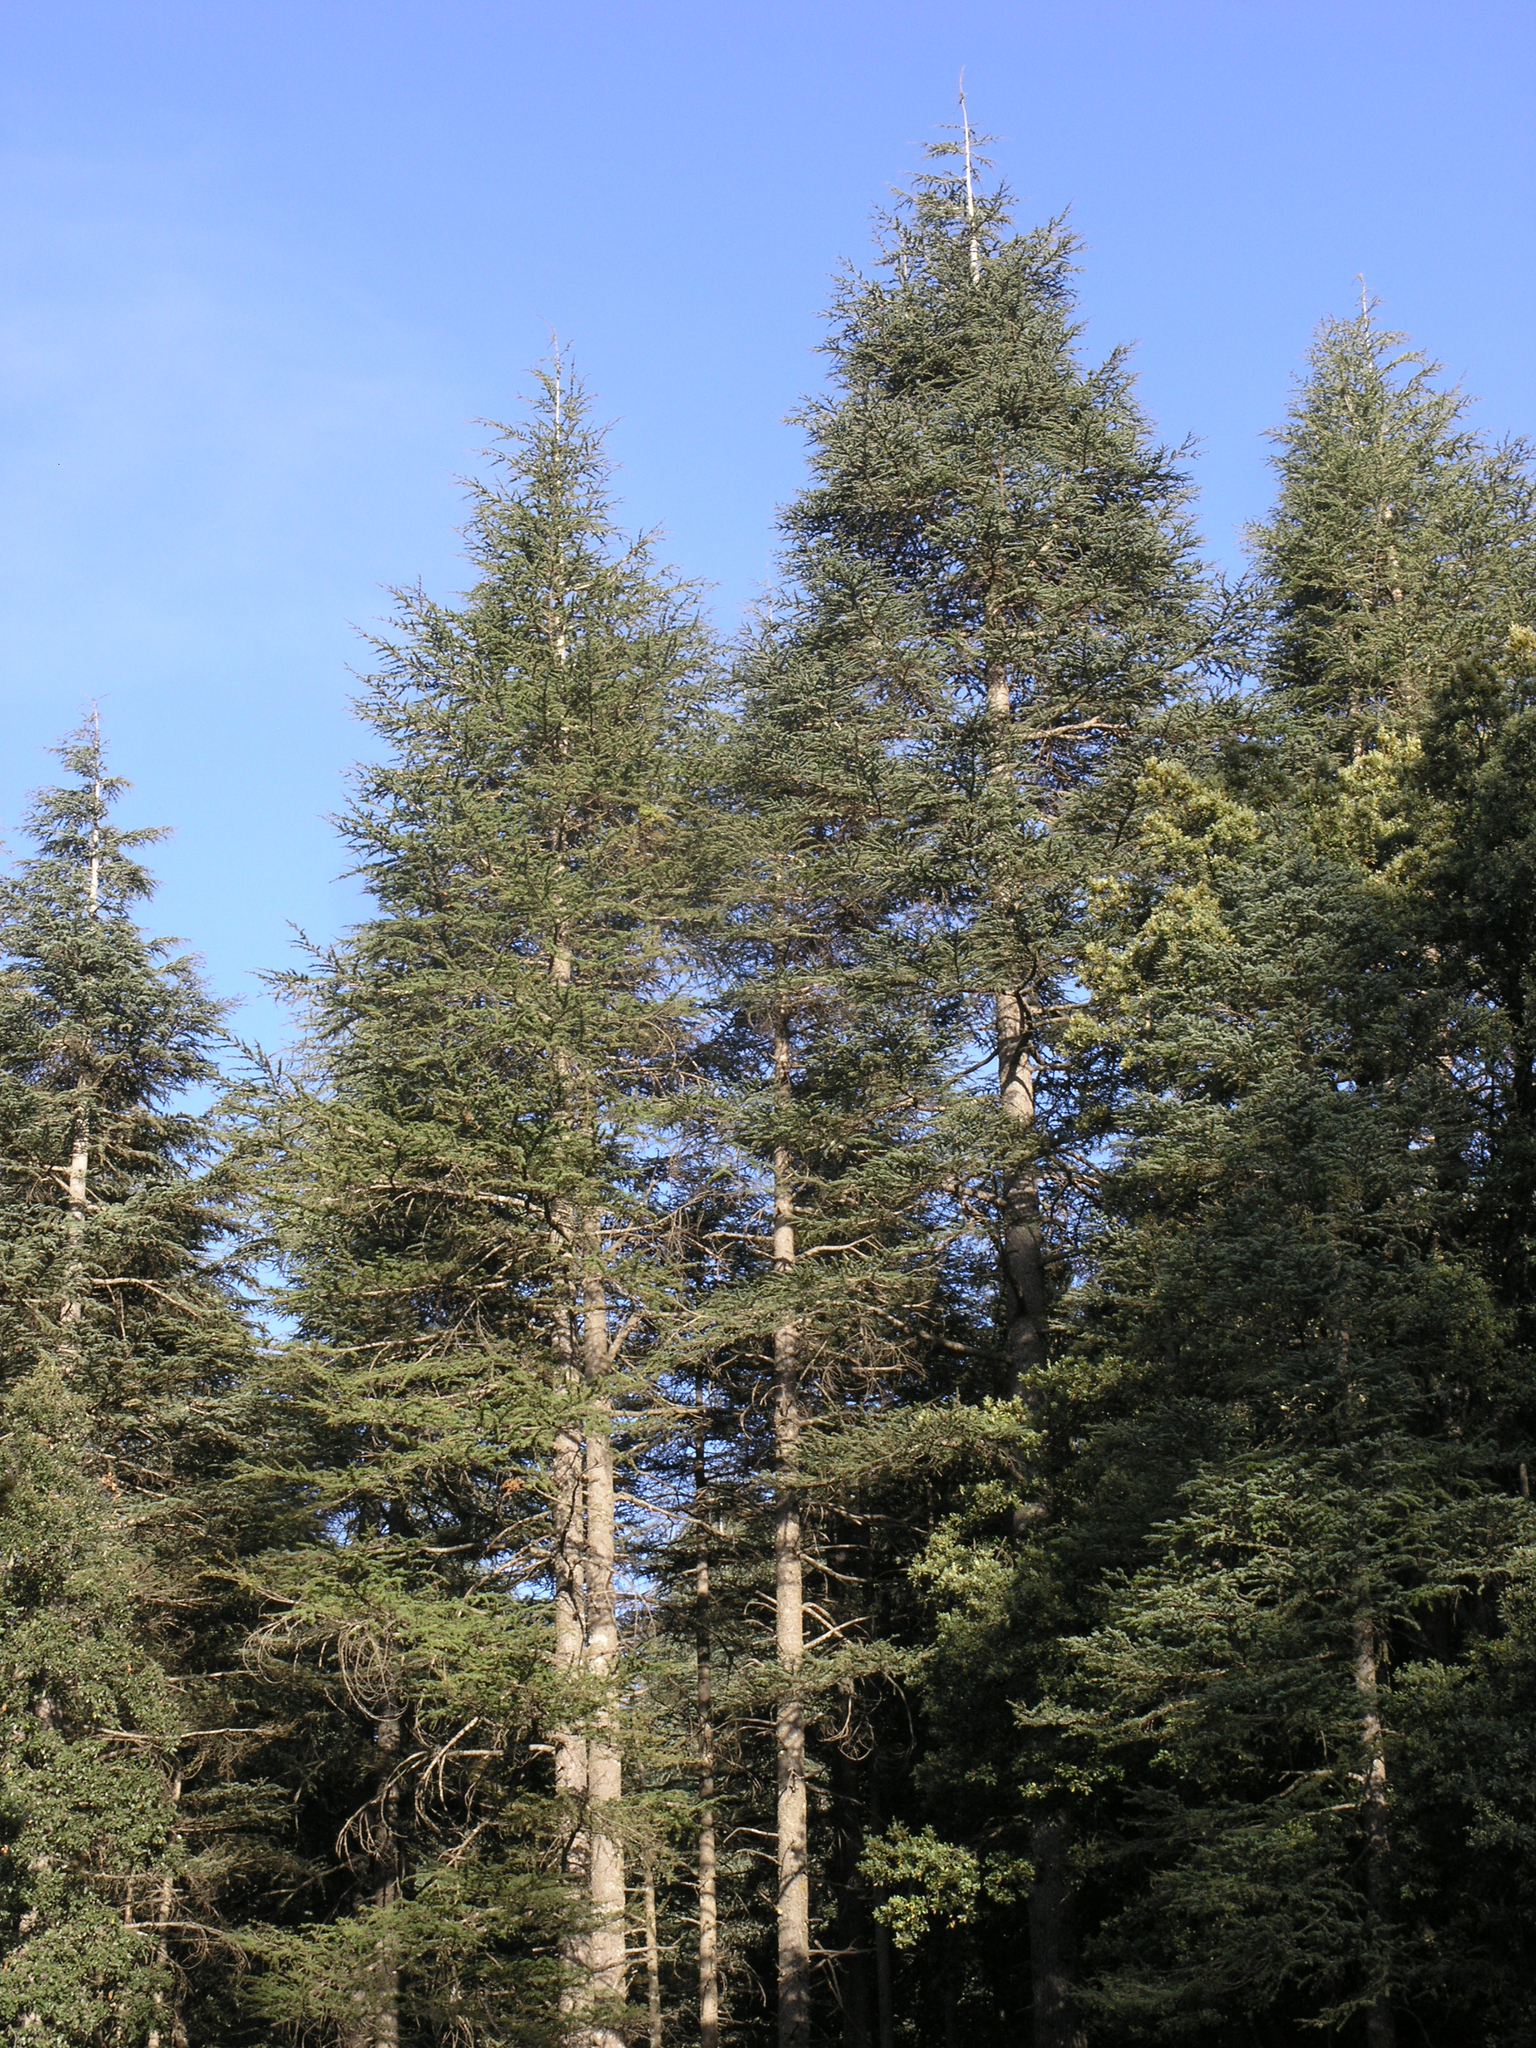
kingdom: Plantae
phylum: Tracheophyta
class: Pinopsida
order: Pinales
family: Pinaceae
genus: Cedrus
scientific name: Cedrus atlantica
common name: Atlas cedar
